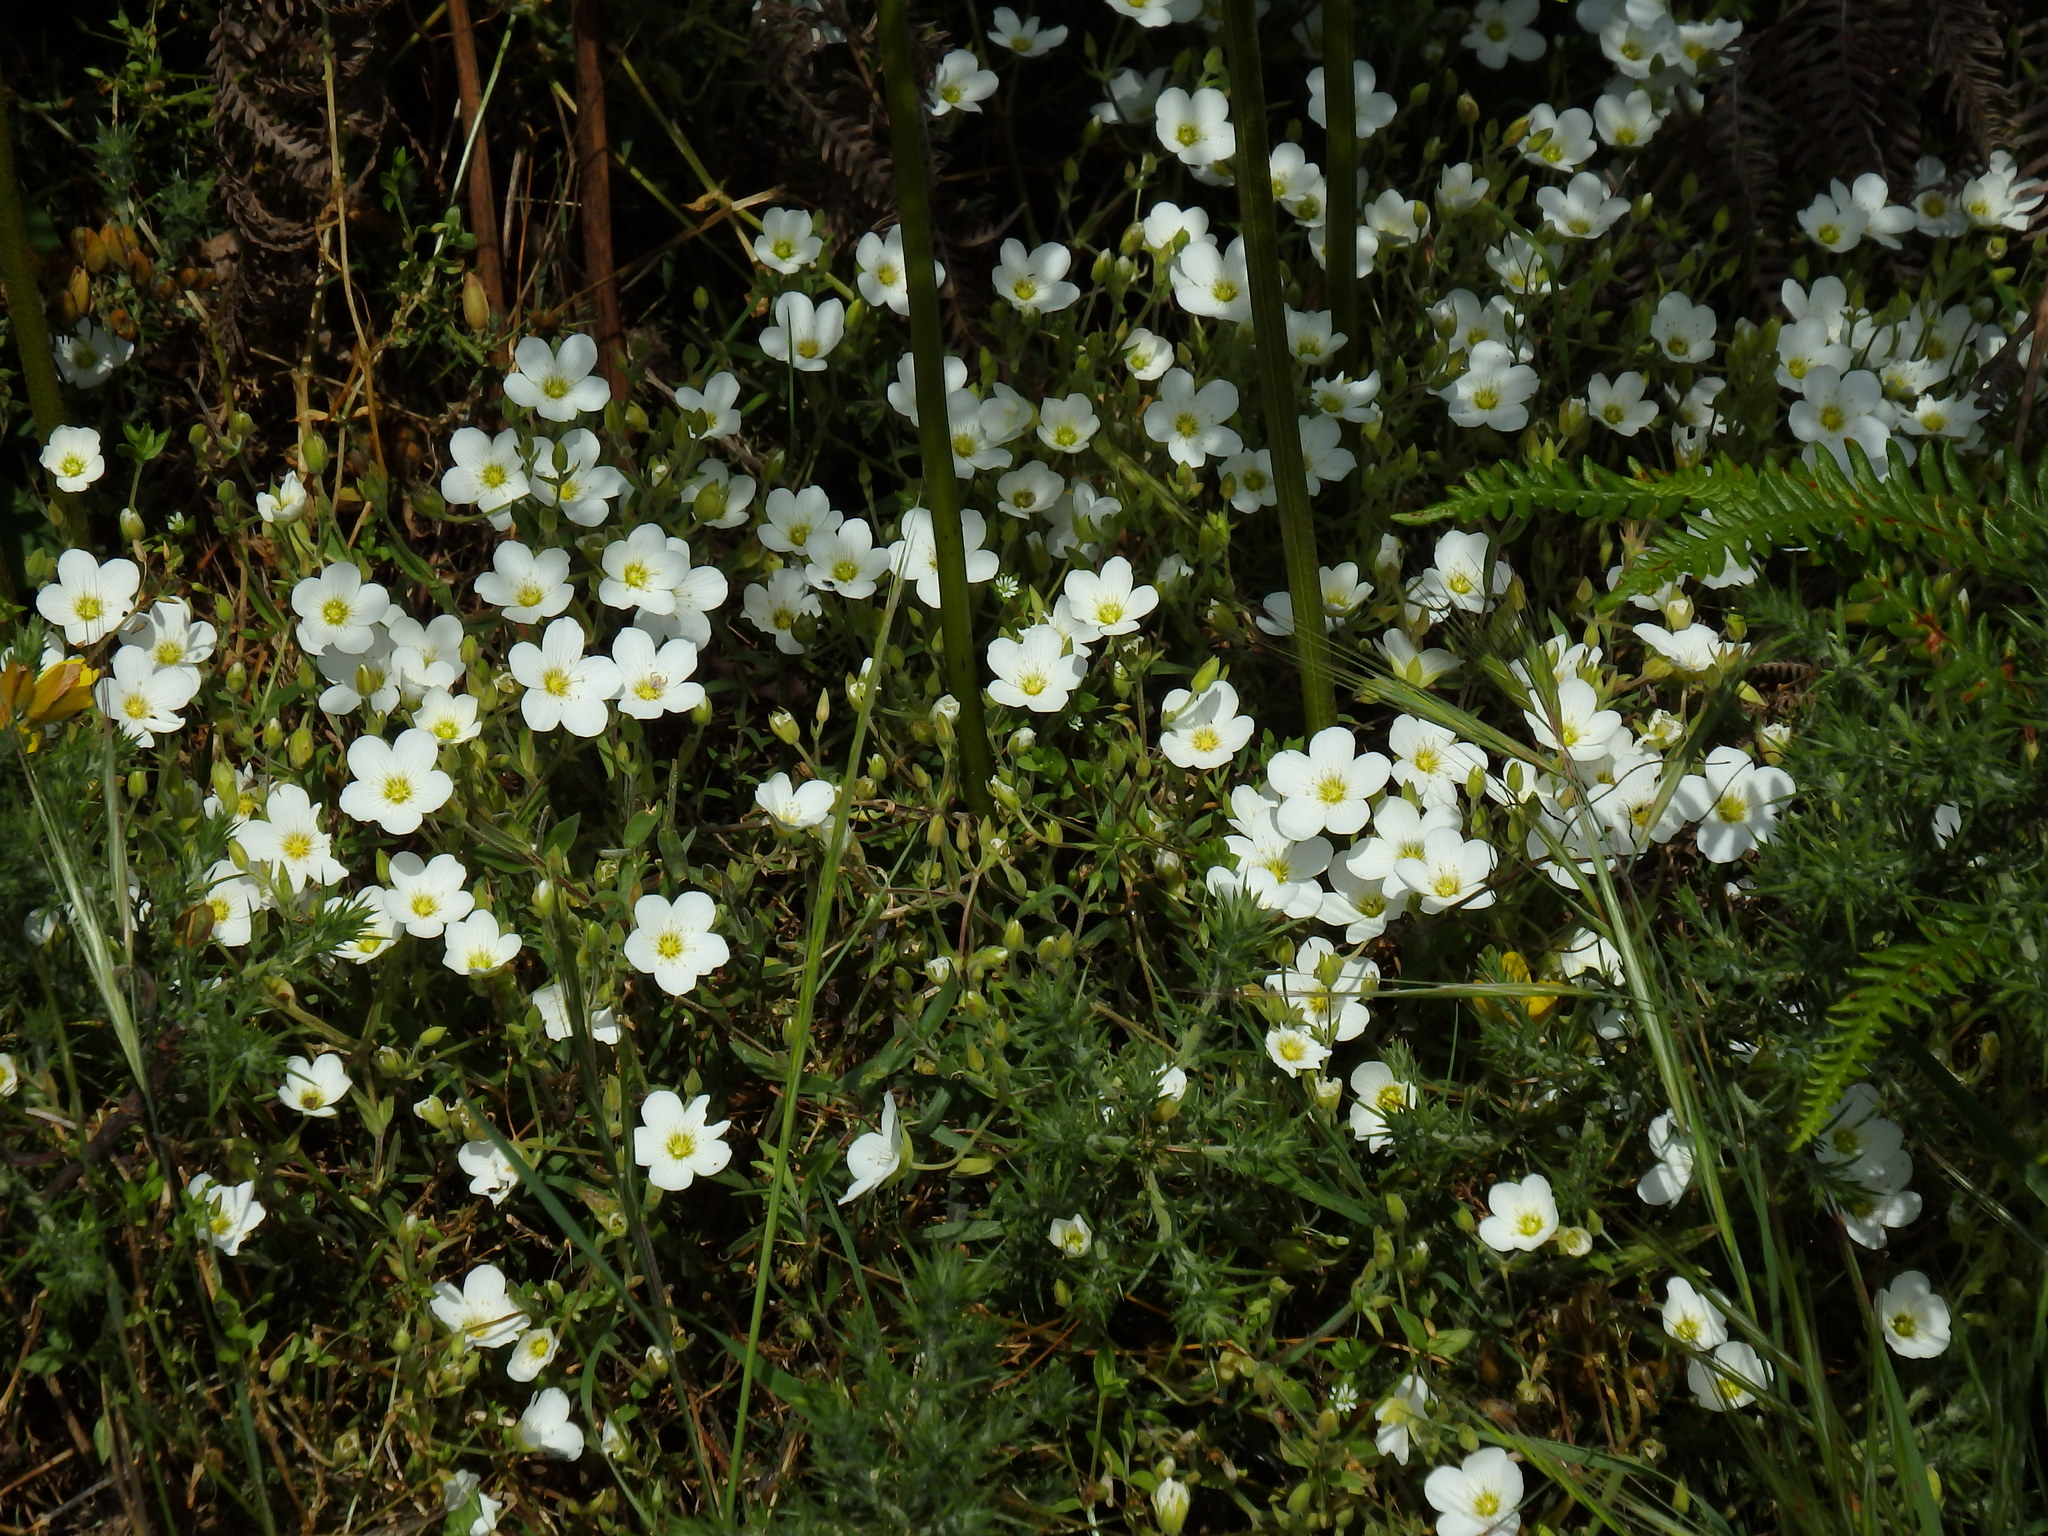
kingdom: Plantae
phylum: Tracheophyta
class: Magnoliopsida
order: Caryophyllales
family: Caryophyllaceae
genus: Arenaria
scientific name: Arenaria montana
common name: Mountain sandwort
